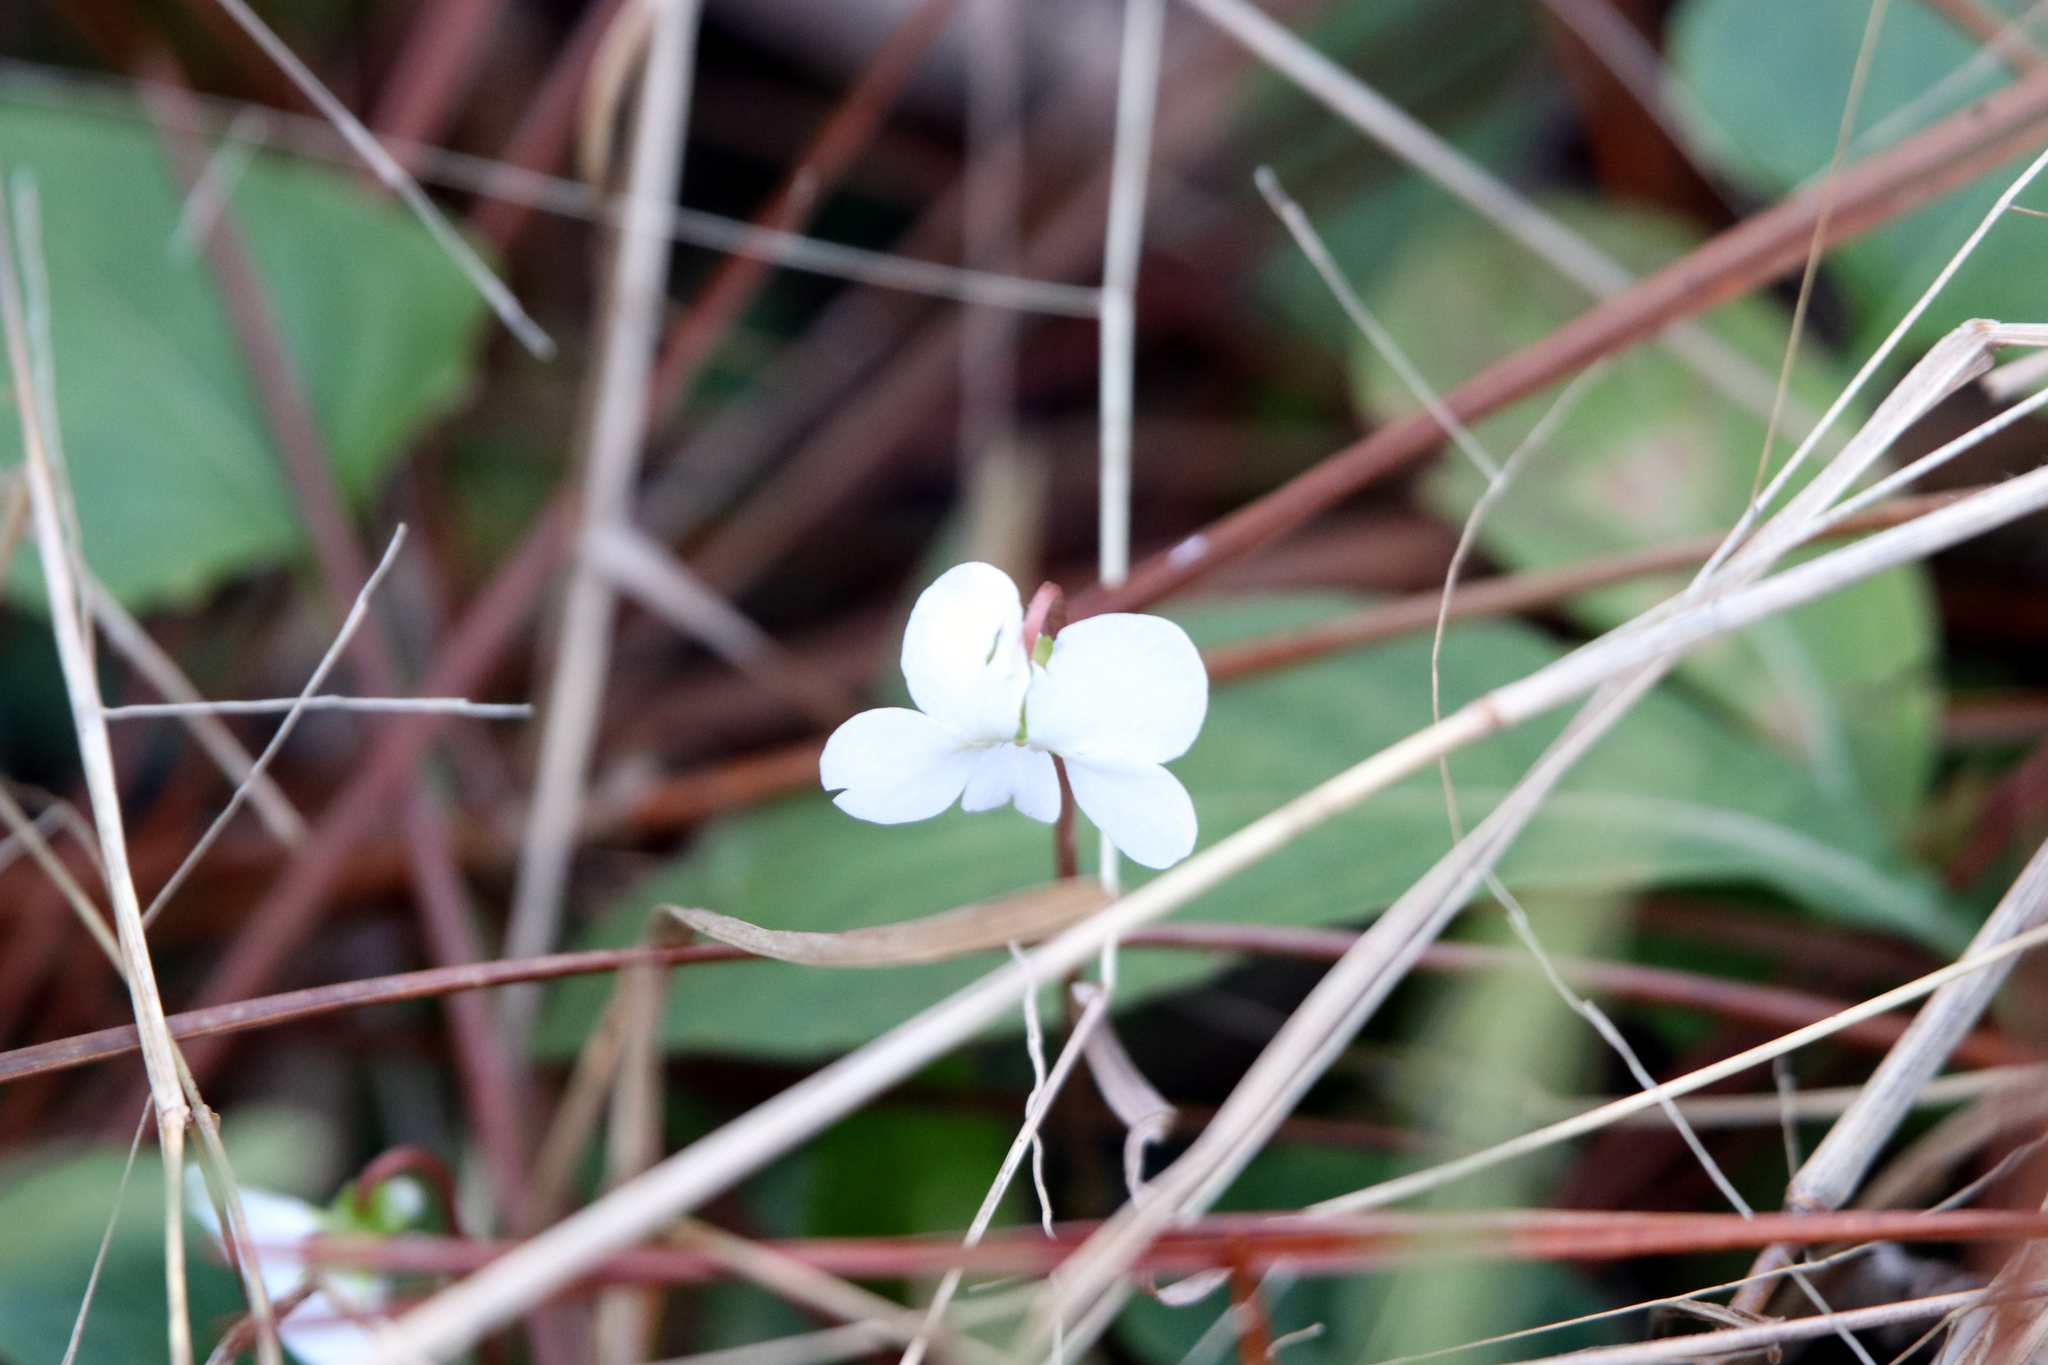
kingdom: Plantae
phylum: Tracheophyta
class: Magnoliopsida
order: Malpighiales
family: Violaceae
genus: Viola
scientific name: Viola primulifolia
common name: Primrose-leaf violet
